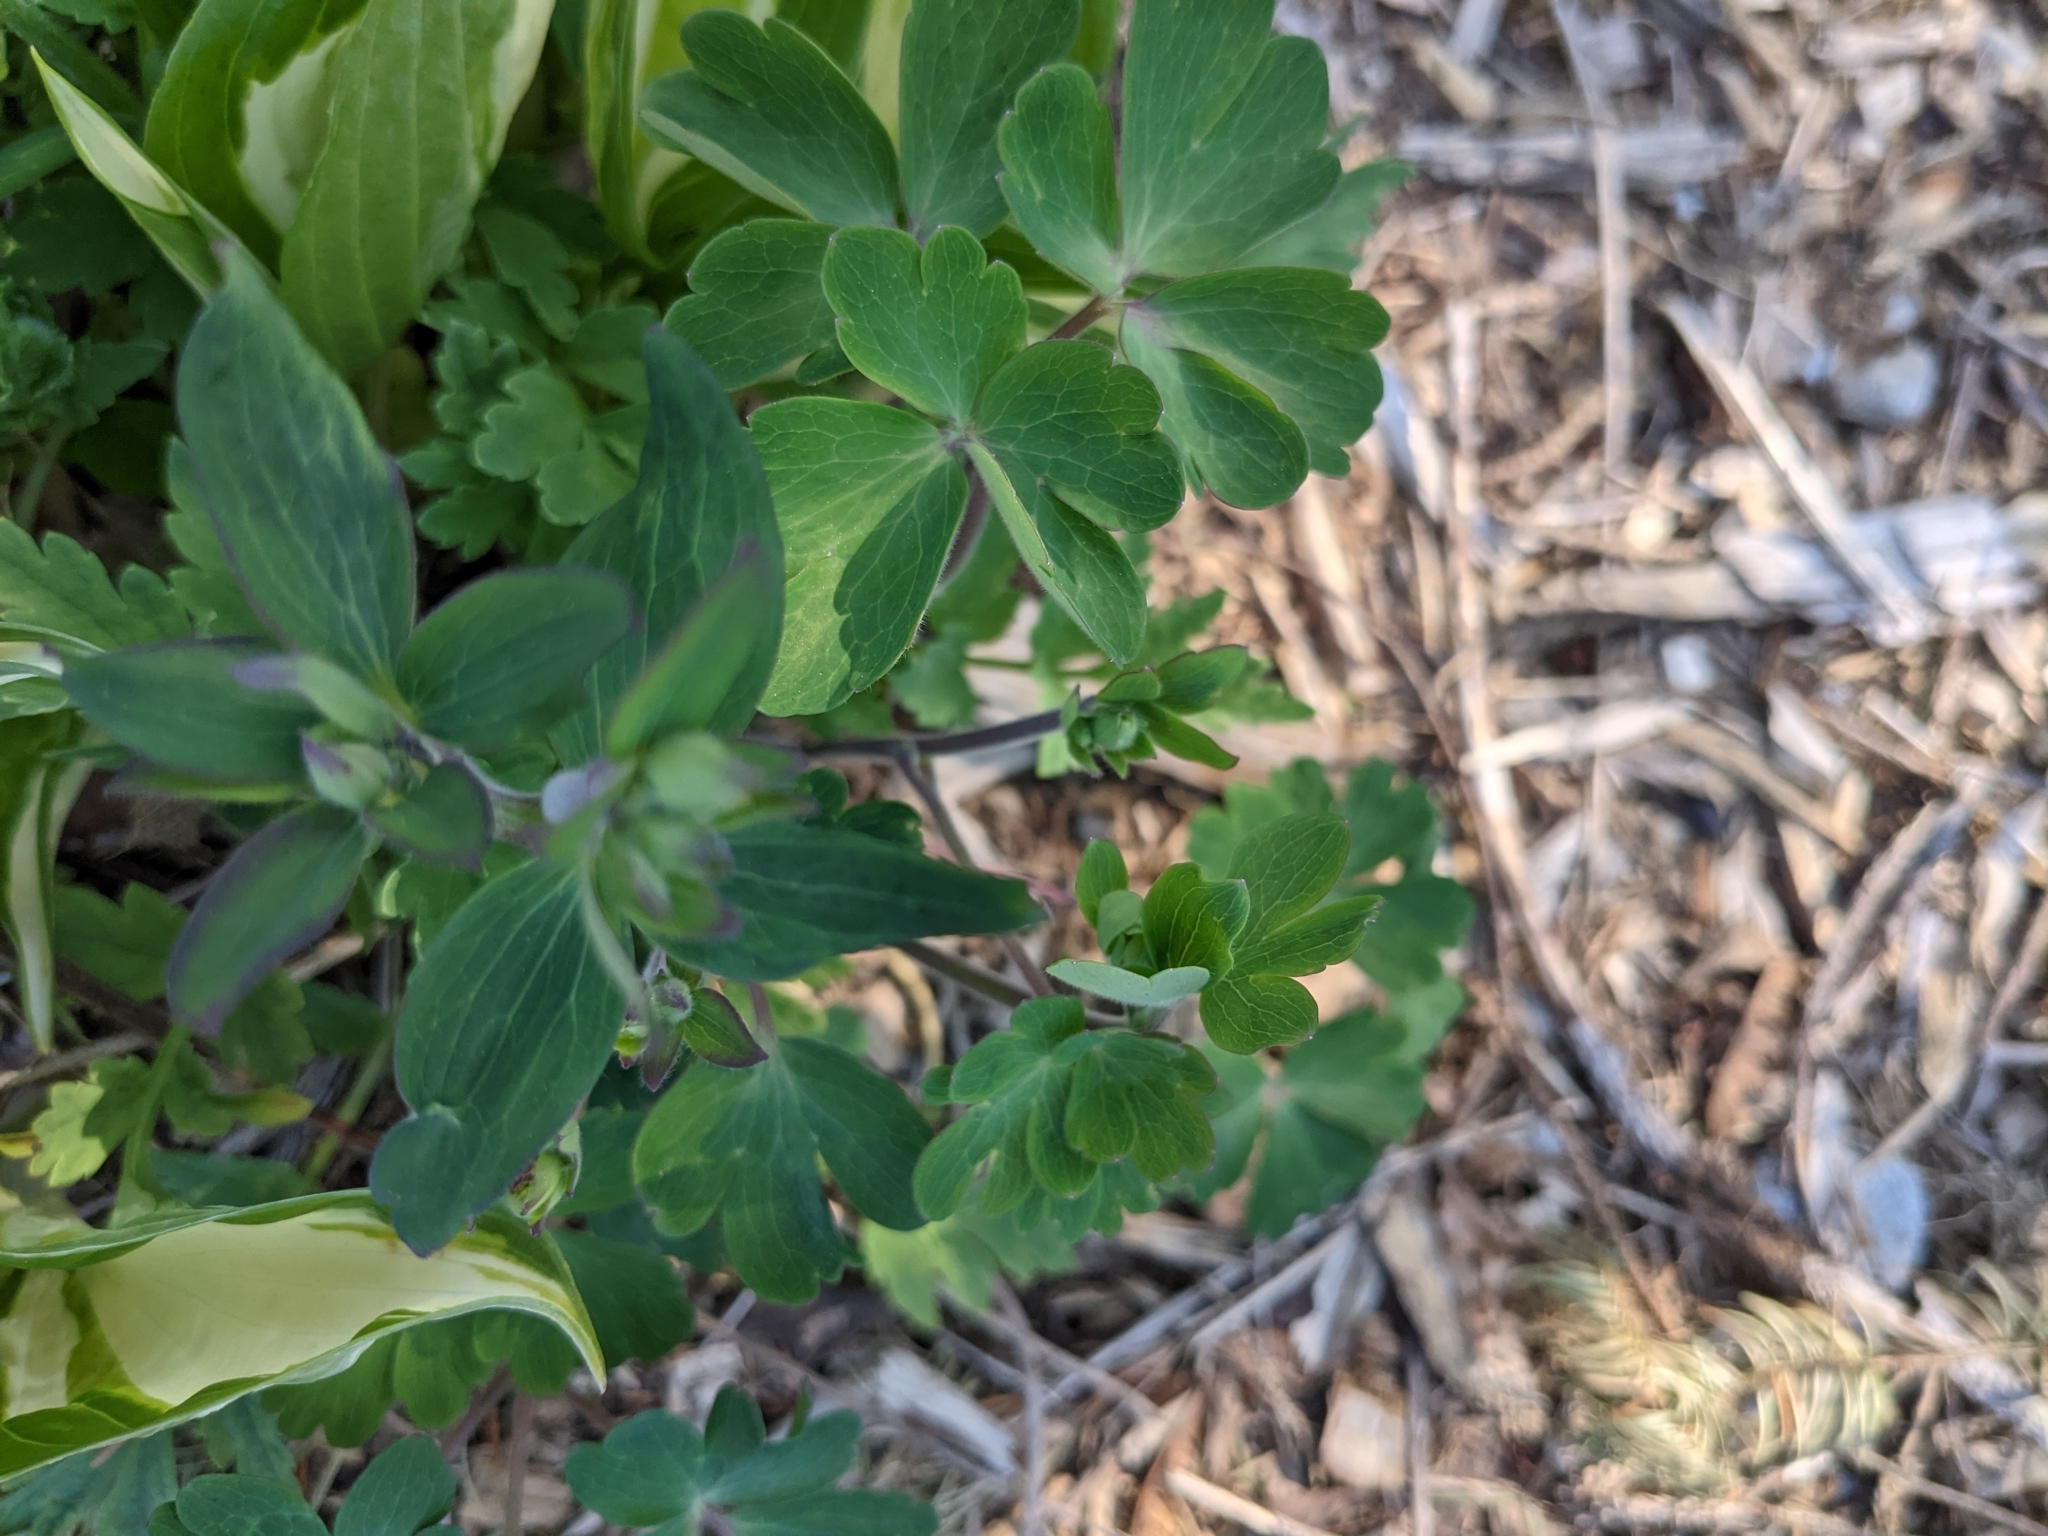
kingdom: Plantae
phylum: Tracheophyta
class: Magnoliopsida
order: Ranunculales
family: Ranunculaceae
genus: Aquilegia
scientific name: Aquilegia vulgaris
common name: Columbine
